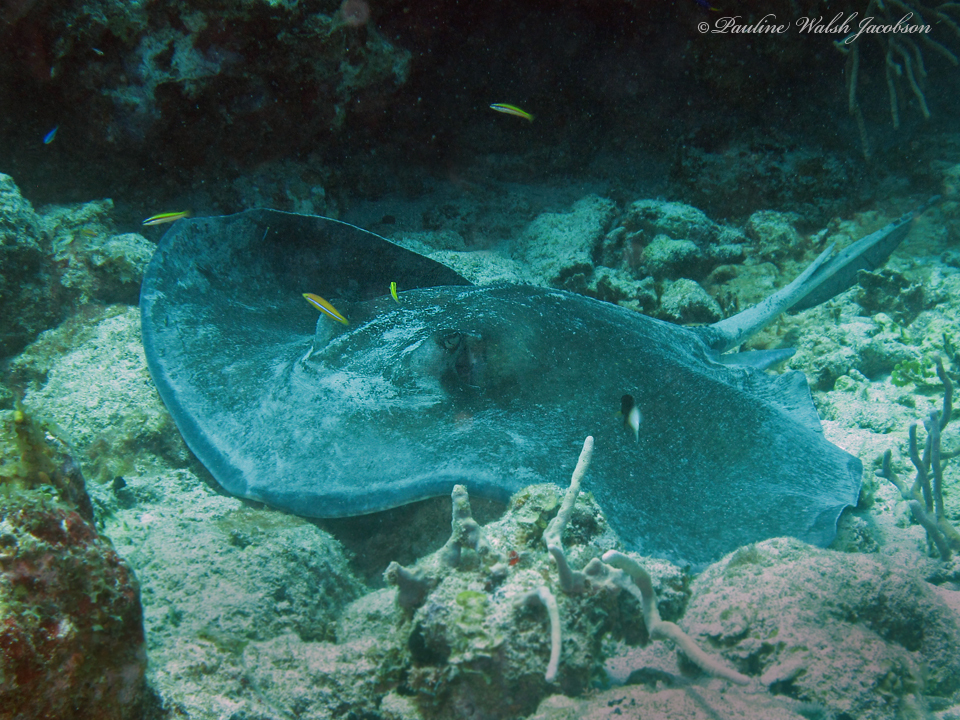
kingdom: Animalia
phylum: Chordata
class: Elasmobranchii
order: Myliobatiformes
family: Dasyatidae
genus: Hypanus
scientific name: Hypanus americanus
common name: Southern stingray
